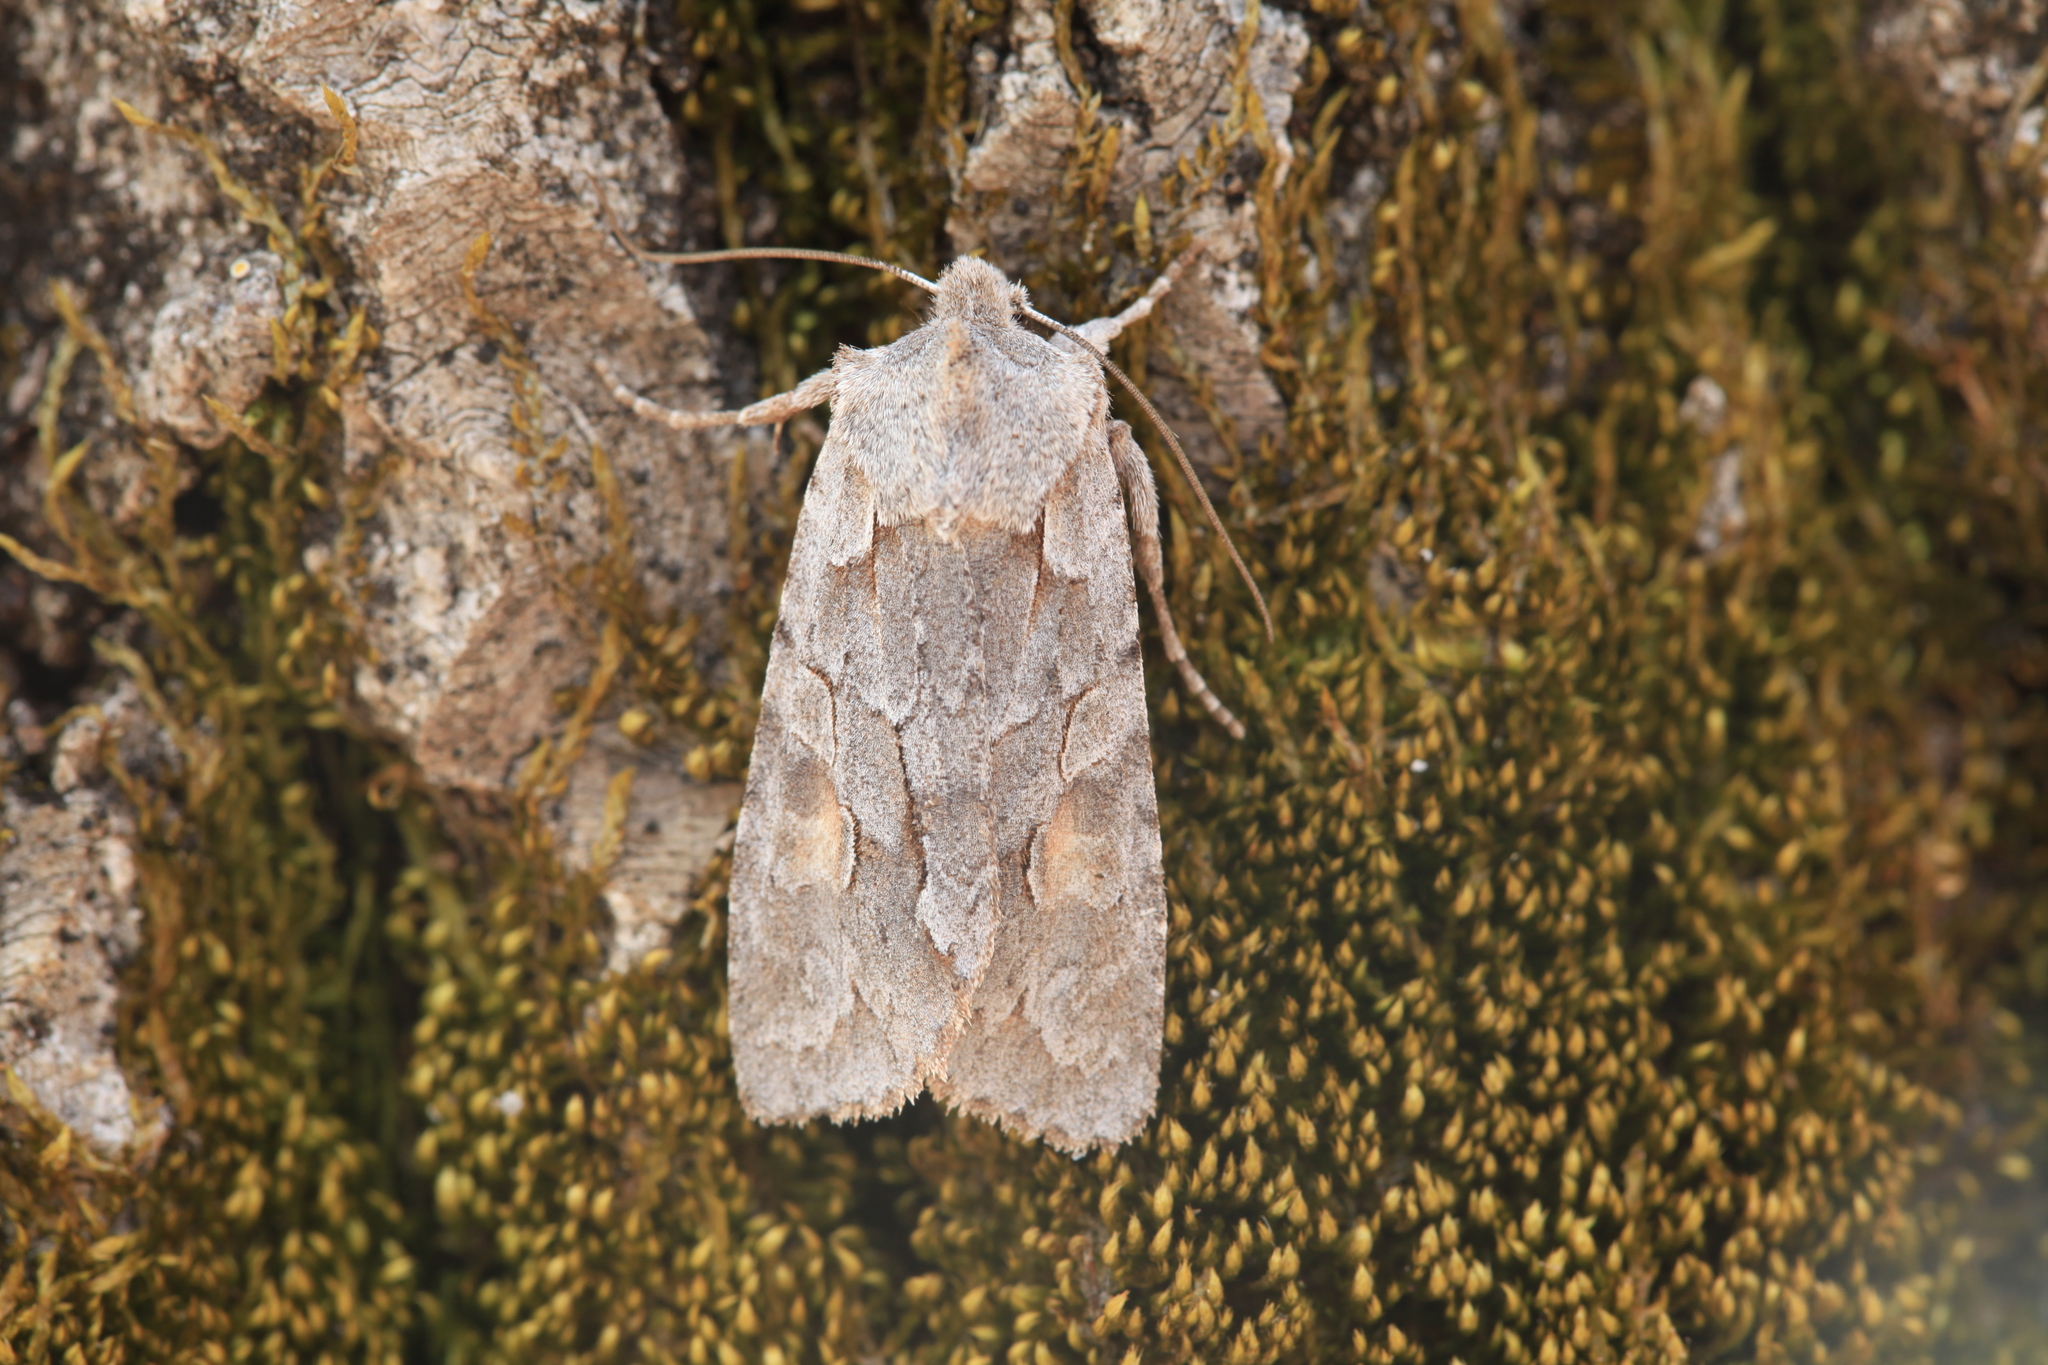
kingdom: Animalia
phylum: Arthropoda
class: Insecta
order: Lepidoptera
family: Noctuidae
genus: Lithophane
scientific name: Lithophane lamda
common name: Nonconformist
